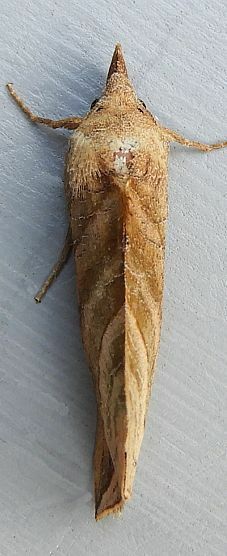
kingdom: Animalia
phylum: Arthropoda
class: Insecta
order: Lepidoptera
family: Erebidae
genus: Calyptra
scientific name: Calyptra canadensis
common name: Canadian owlet
